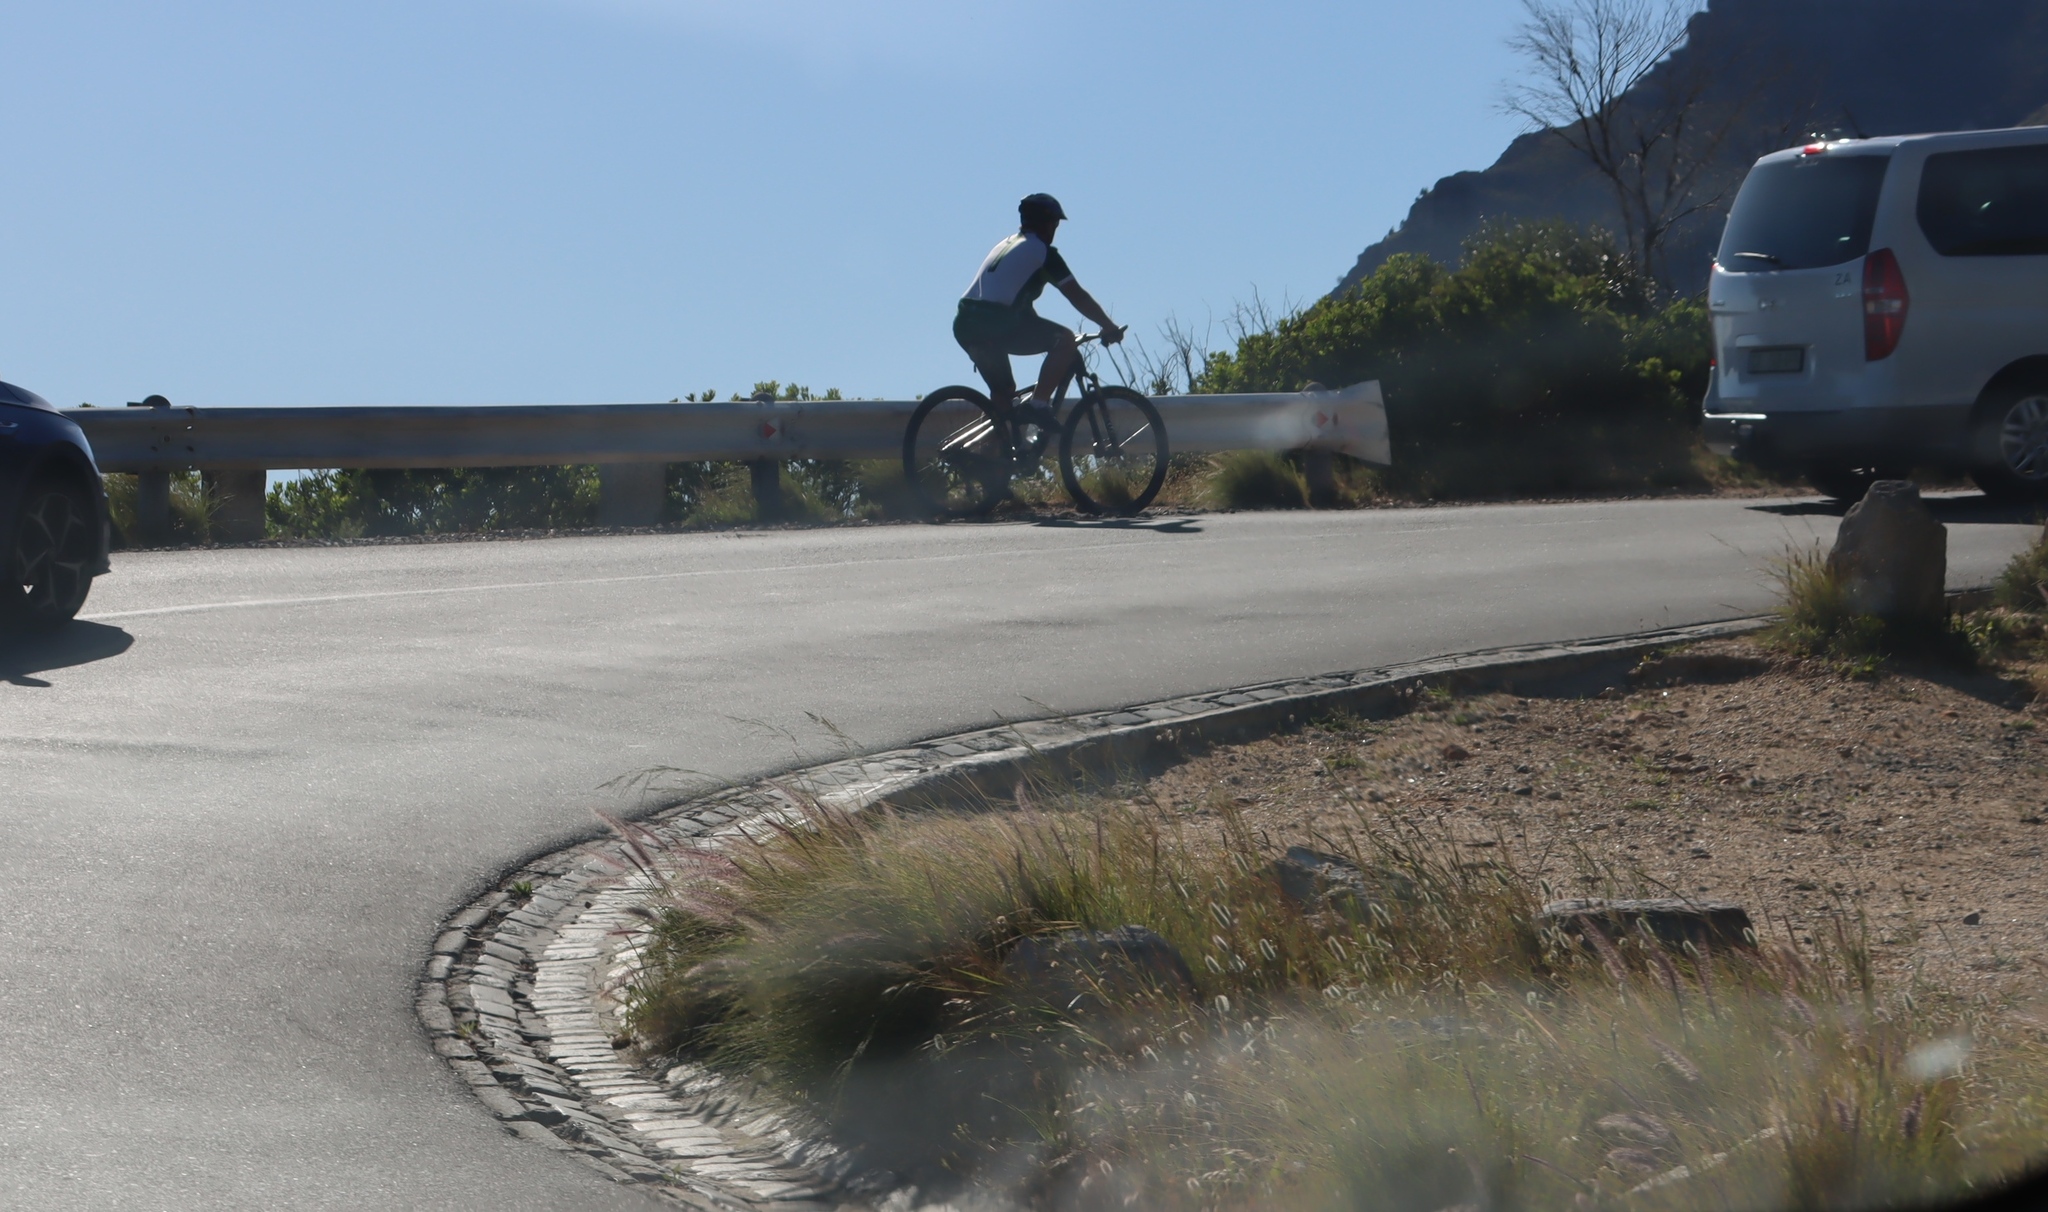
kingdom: Plantae
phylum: Tracheophyta
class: Liliopsida
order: Poales
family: Poaceae
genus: Cenchrus
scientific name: Cenchrus setaceus
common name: Crimson fountaingrass
